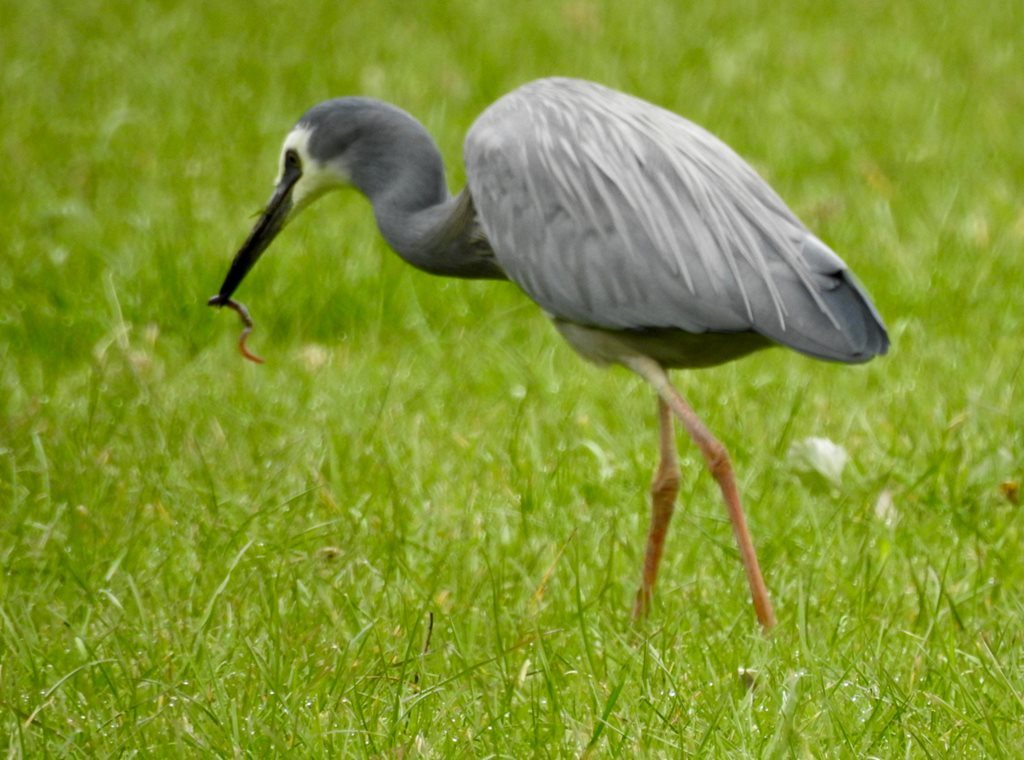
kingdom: Animalia
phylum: Chordata
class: Aves
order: Pelecaniformes
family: Ardeidae
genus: Egretta
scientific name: Egretta novaehollandiae
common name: White-faced heron
